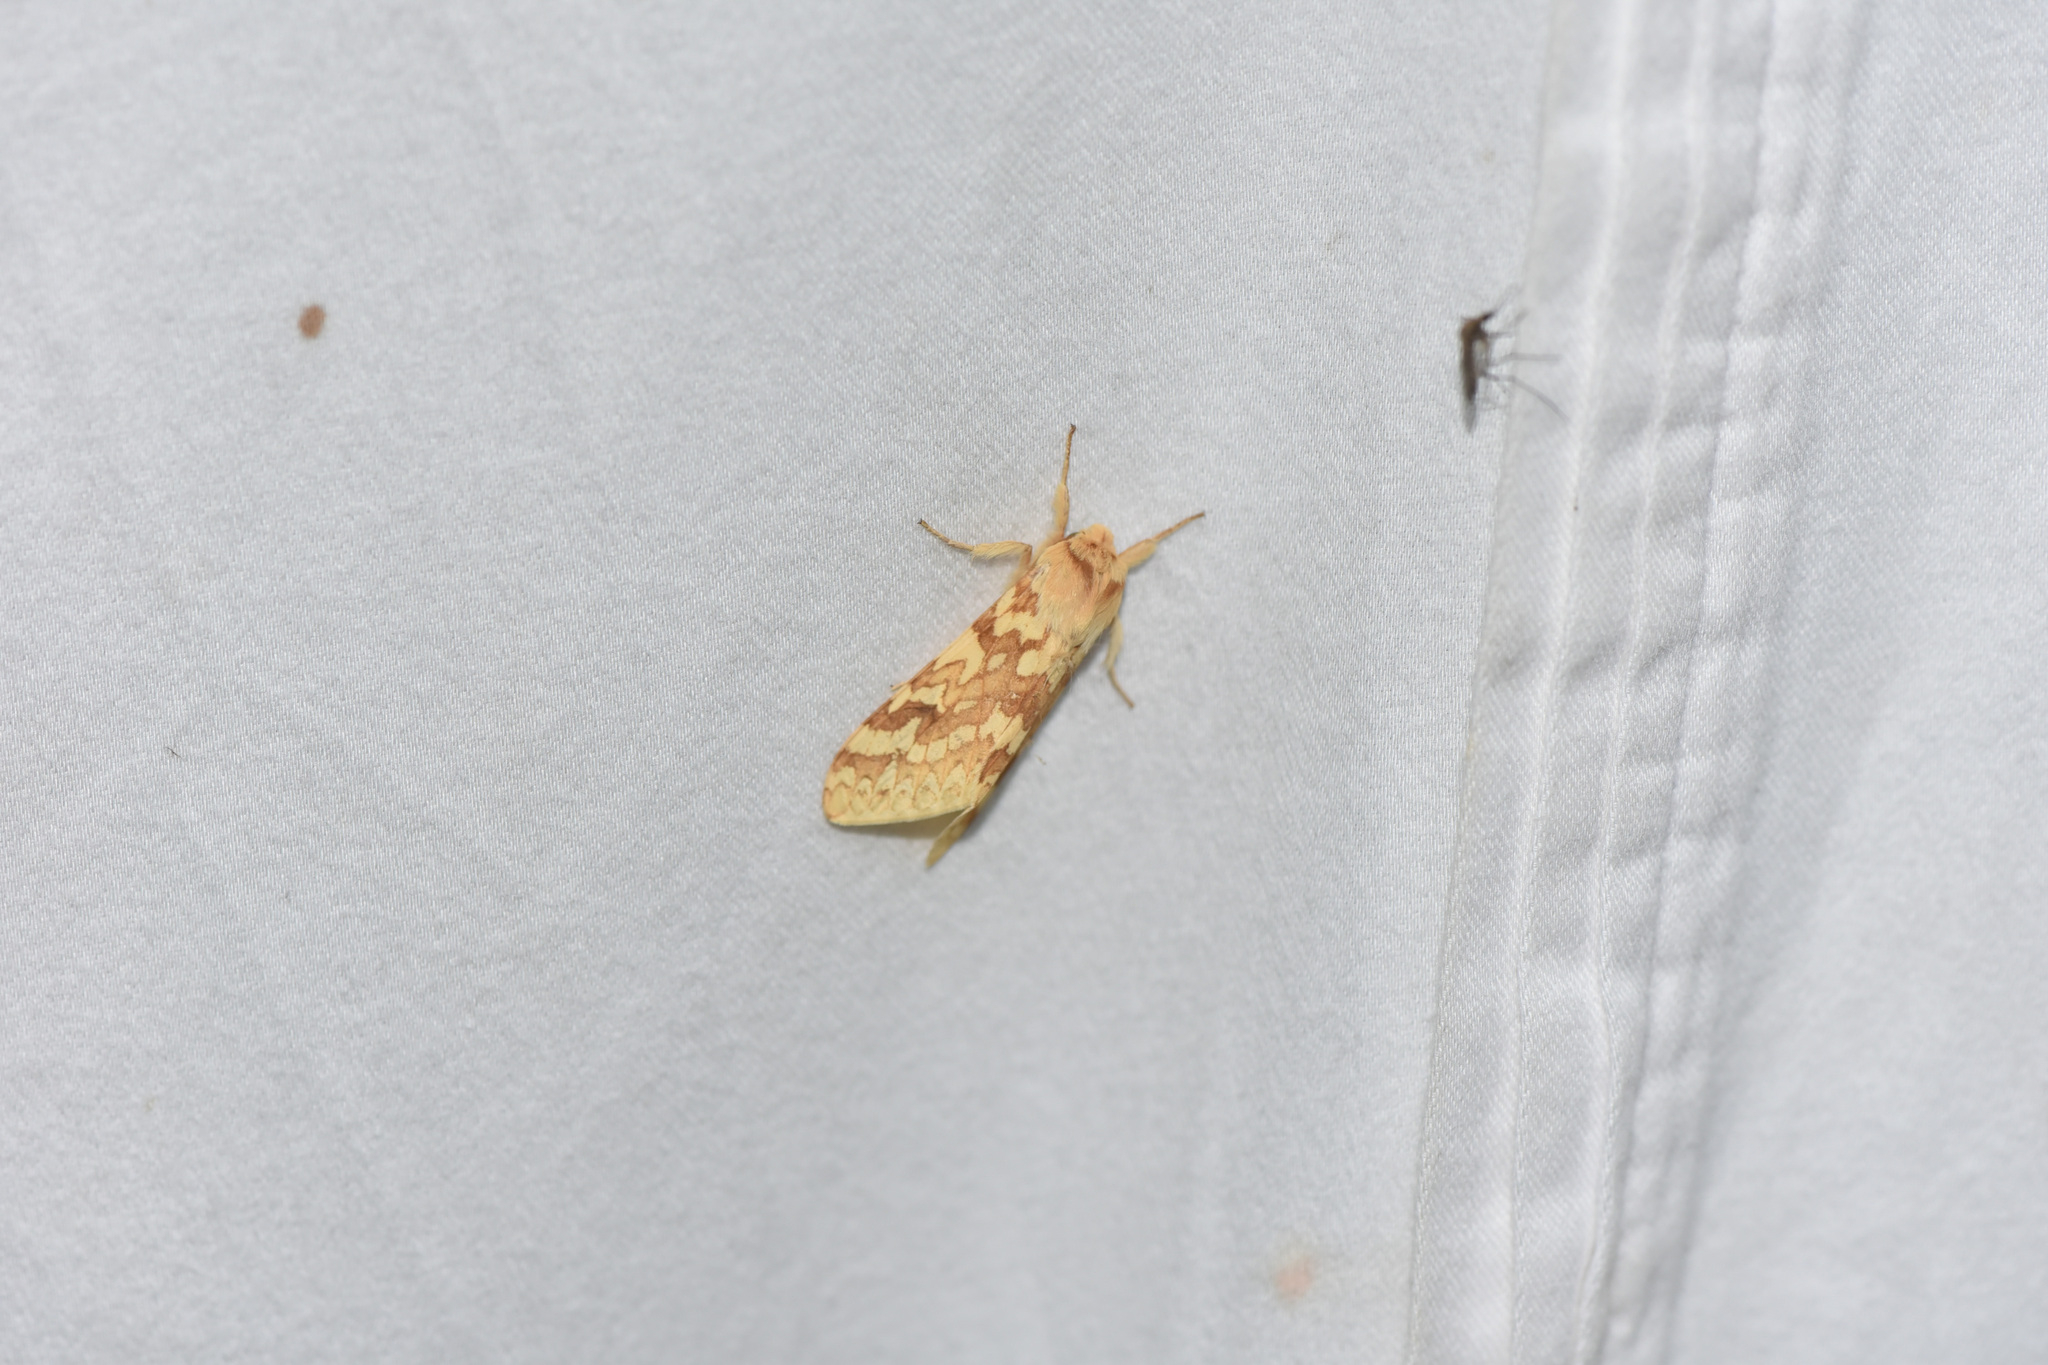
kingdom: Animalia
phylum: Arthropoda
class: Insecta
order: Lepidoptera
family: Erebidae
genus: Lophocampa
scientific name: Lophocampa maculata
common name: Spotted tussock moth
